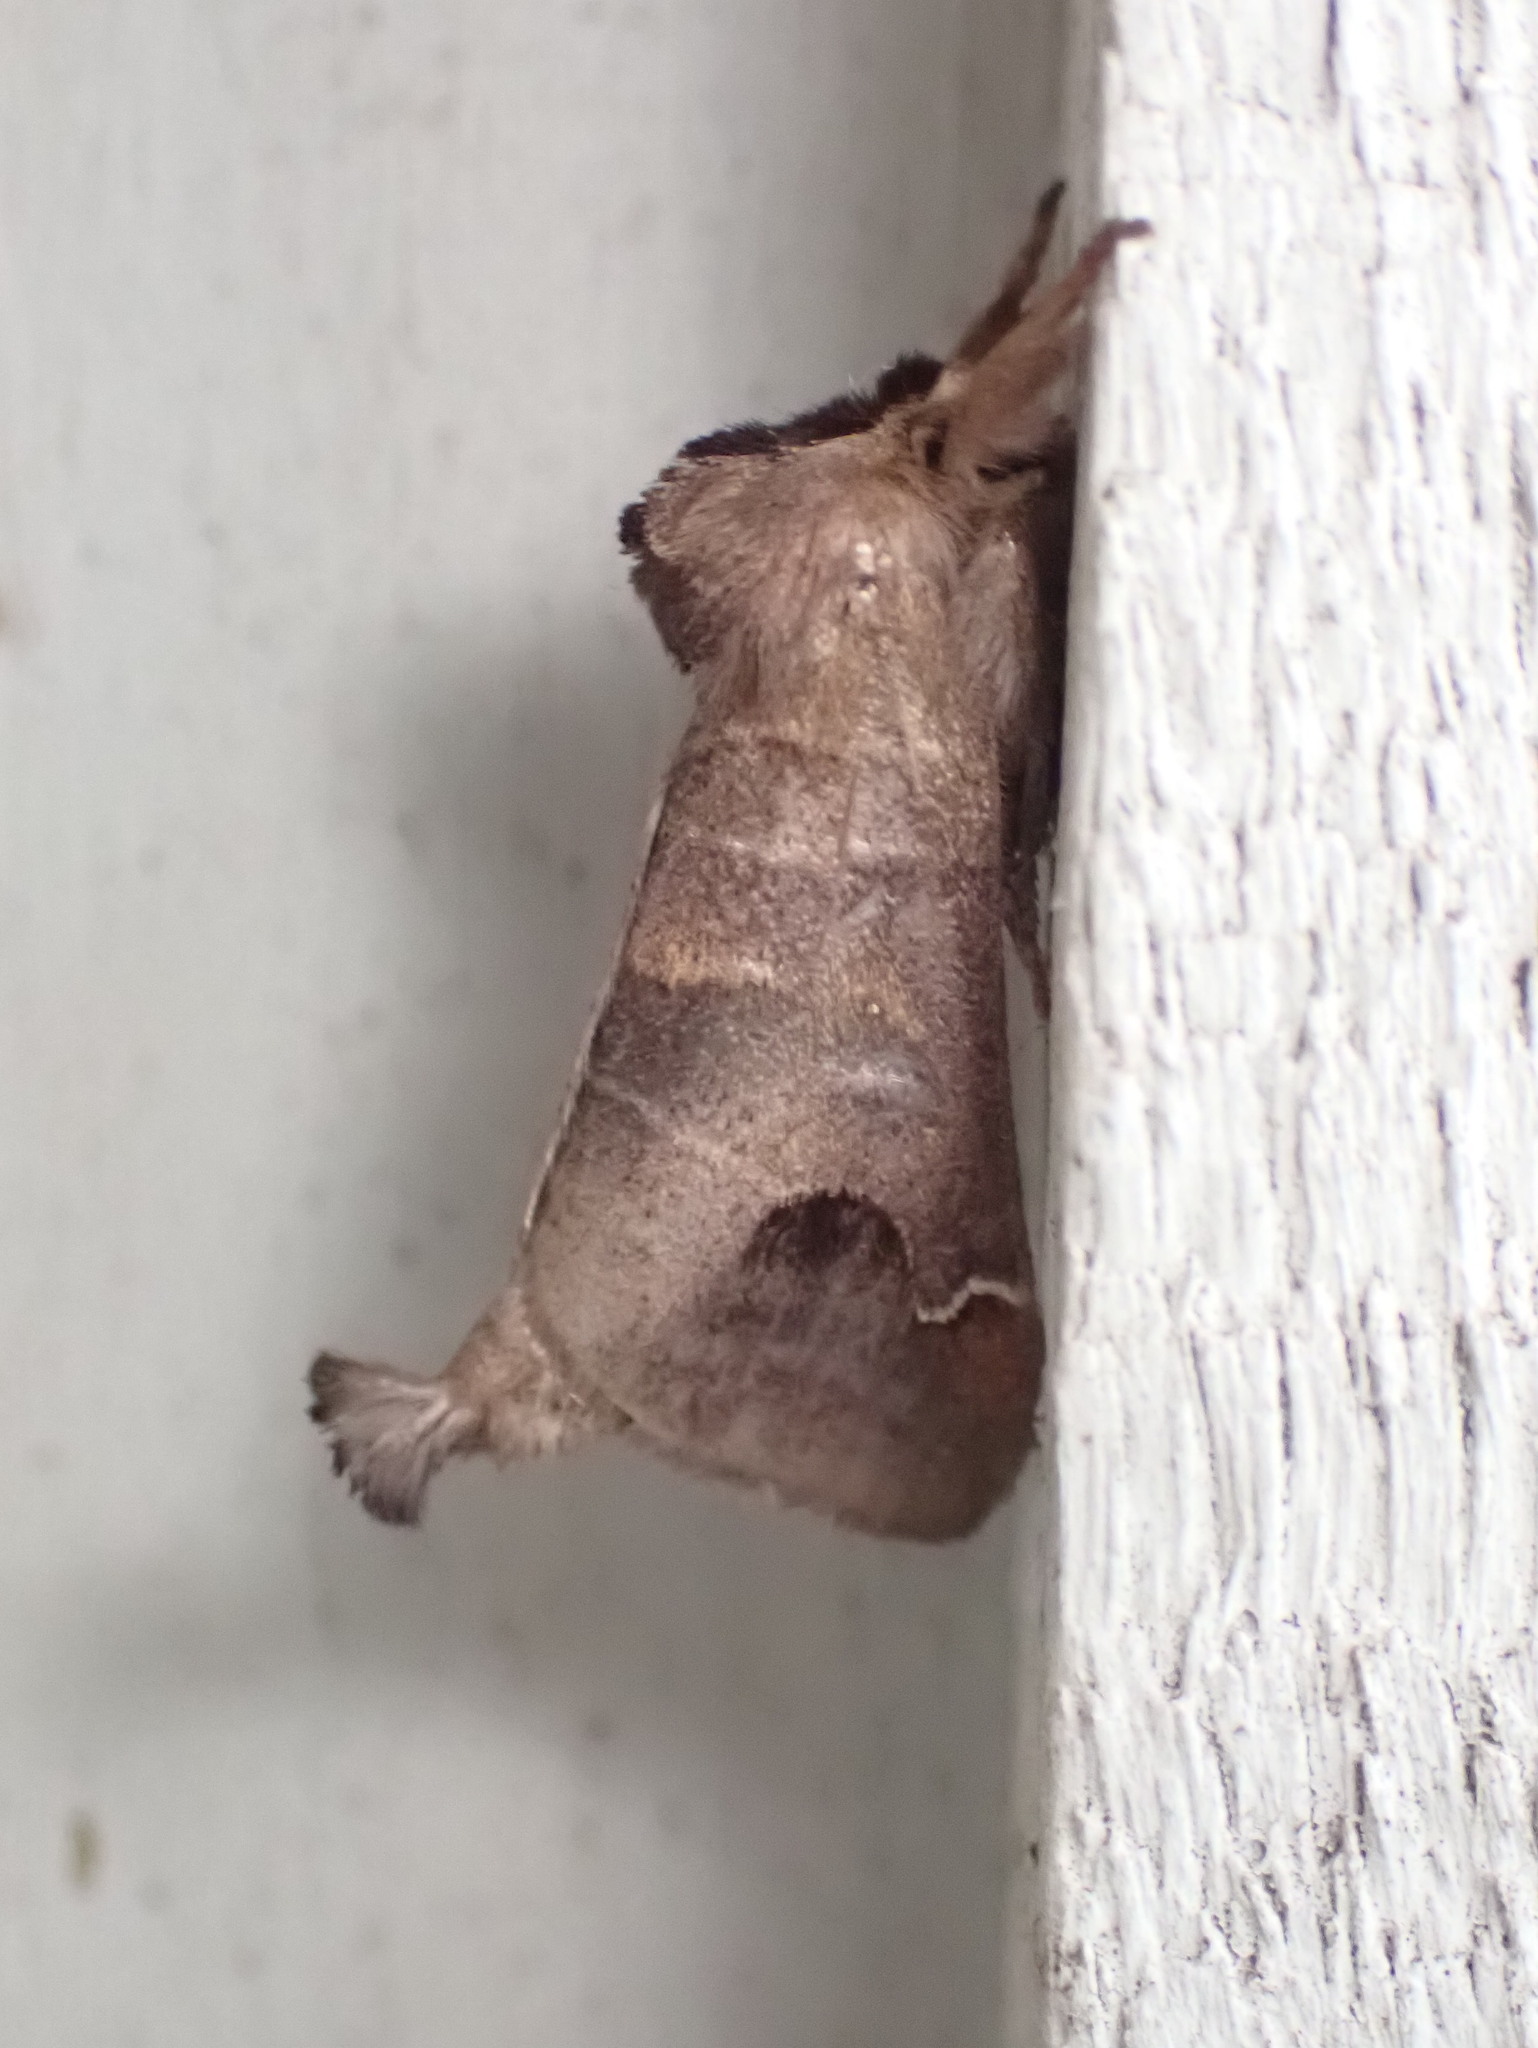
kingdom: Animalia
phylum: Arthropoda
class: Insecta
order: Lepidoptera
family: Notodontidae
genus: Clostera
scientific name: Clostera albosigma
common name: Sigmoid prominent
